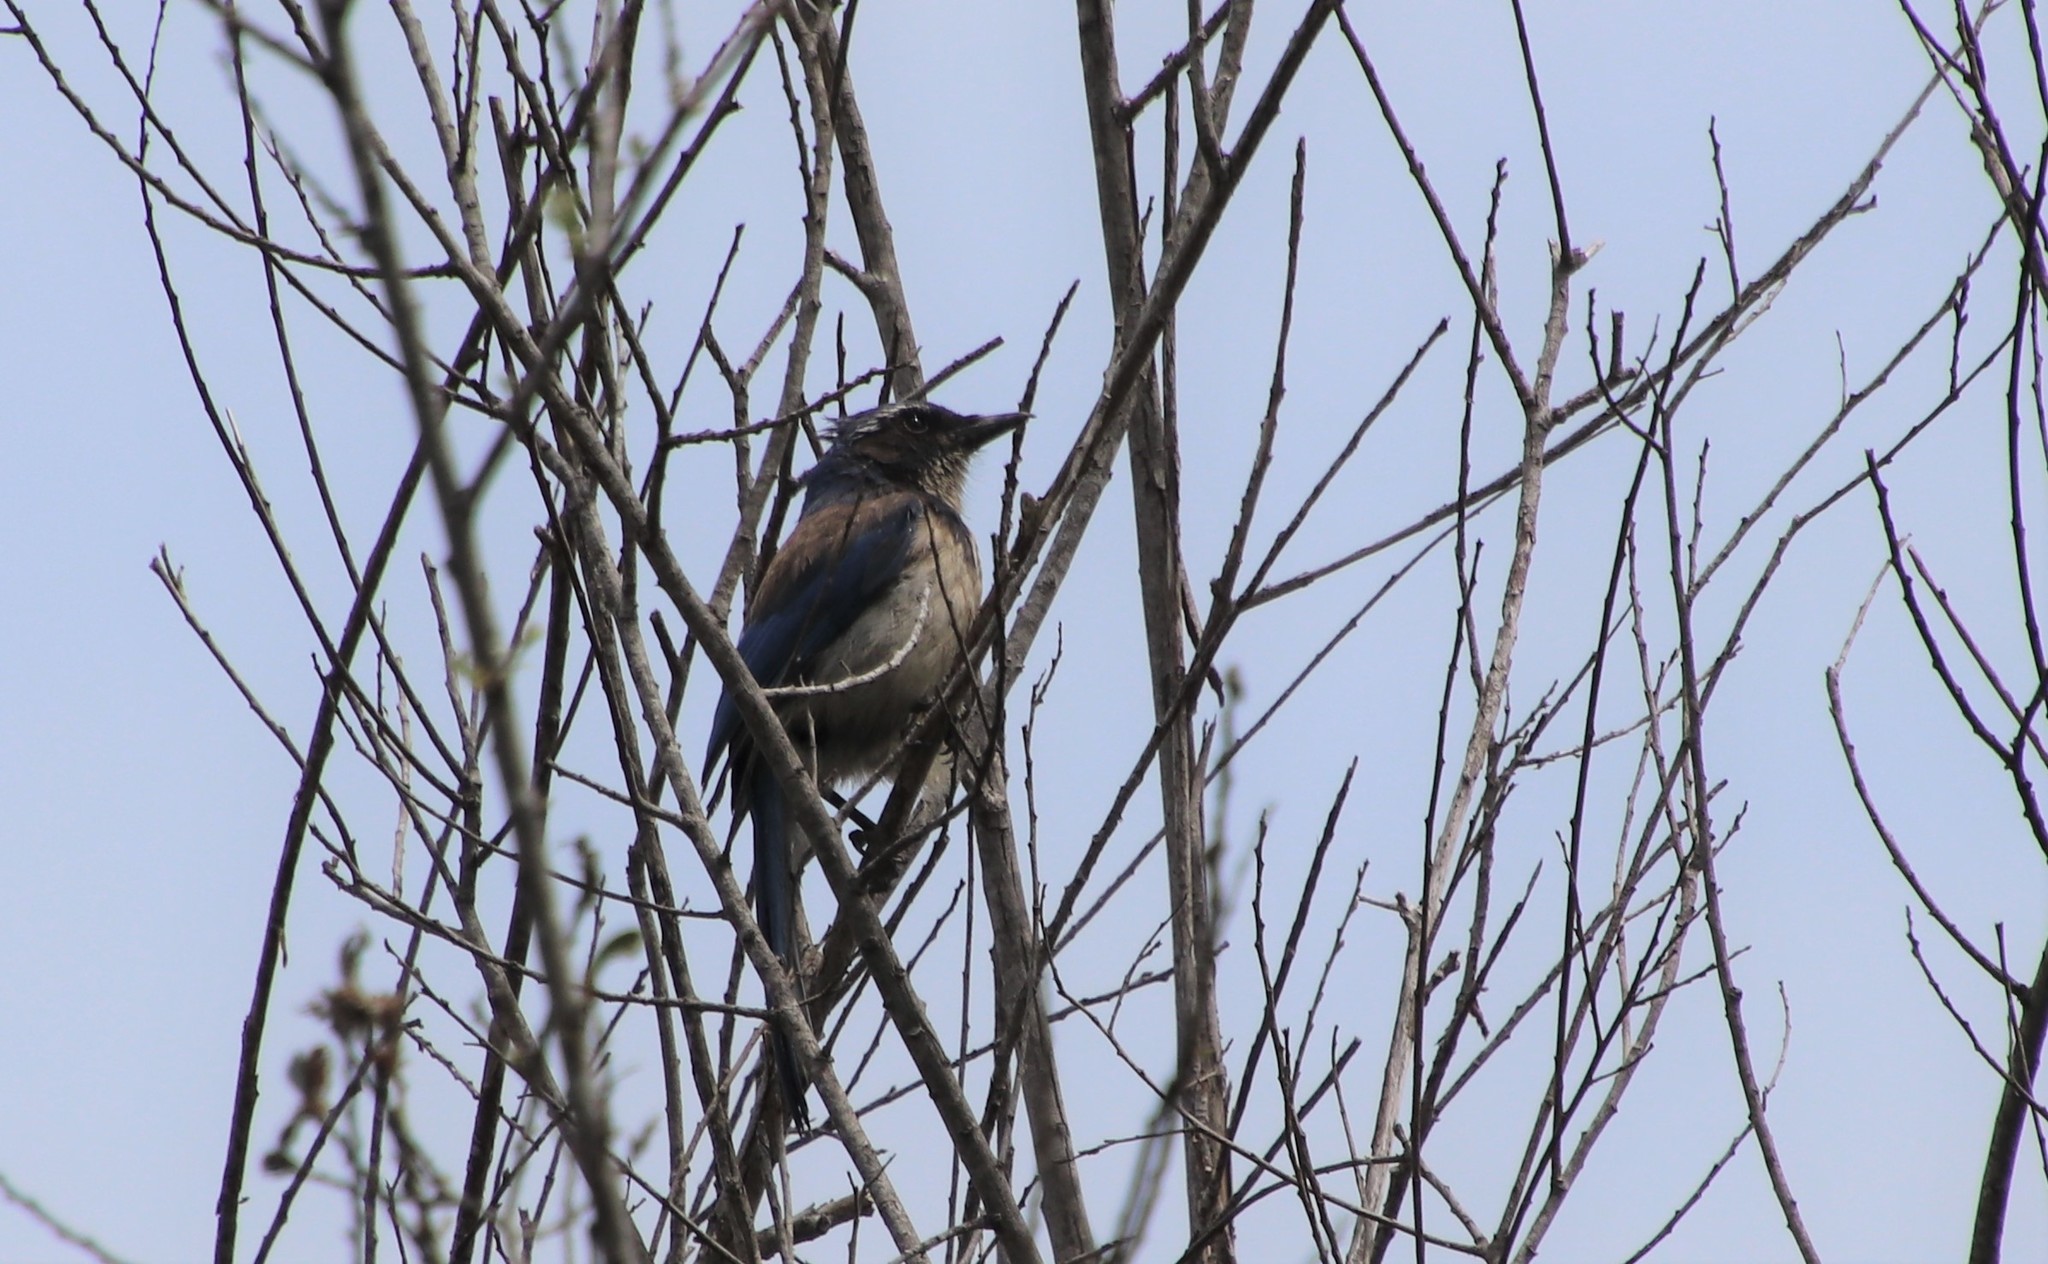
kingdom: Animalia
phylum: Chordata
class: Aves
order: Passeriformes
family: Corvidae
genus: Aphelocoma
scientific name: Aphelocoma californica
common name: California scrub-jay
